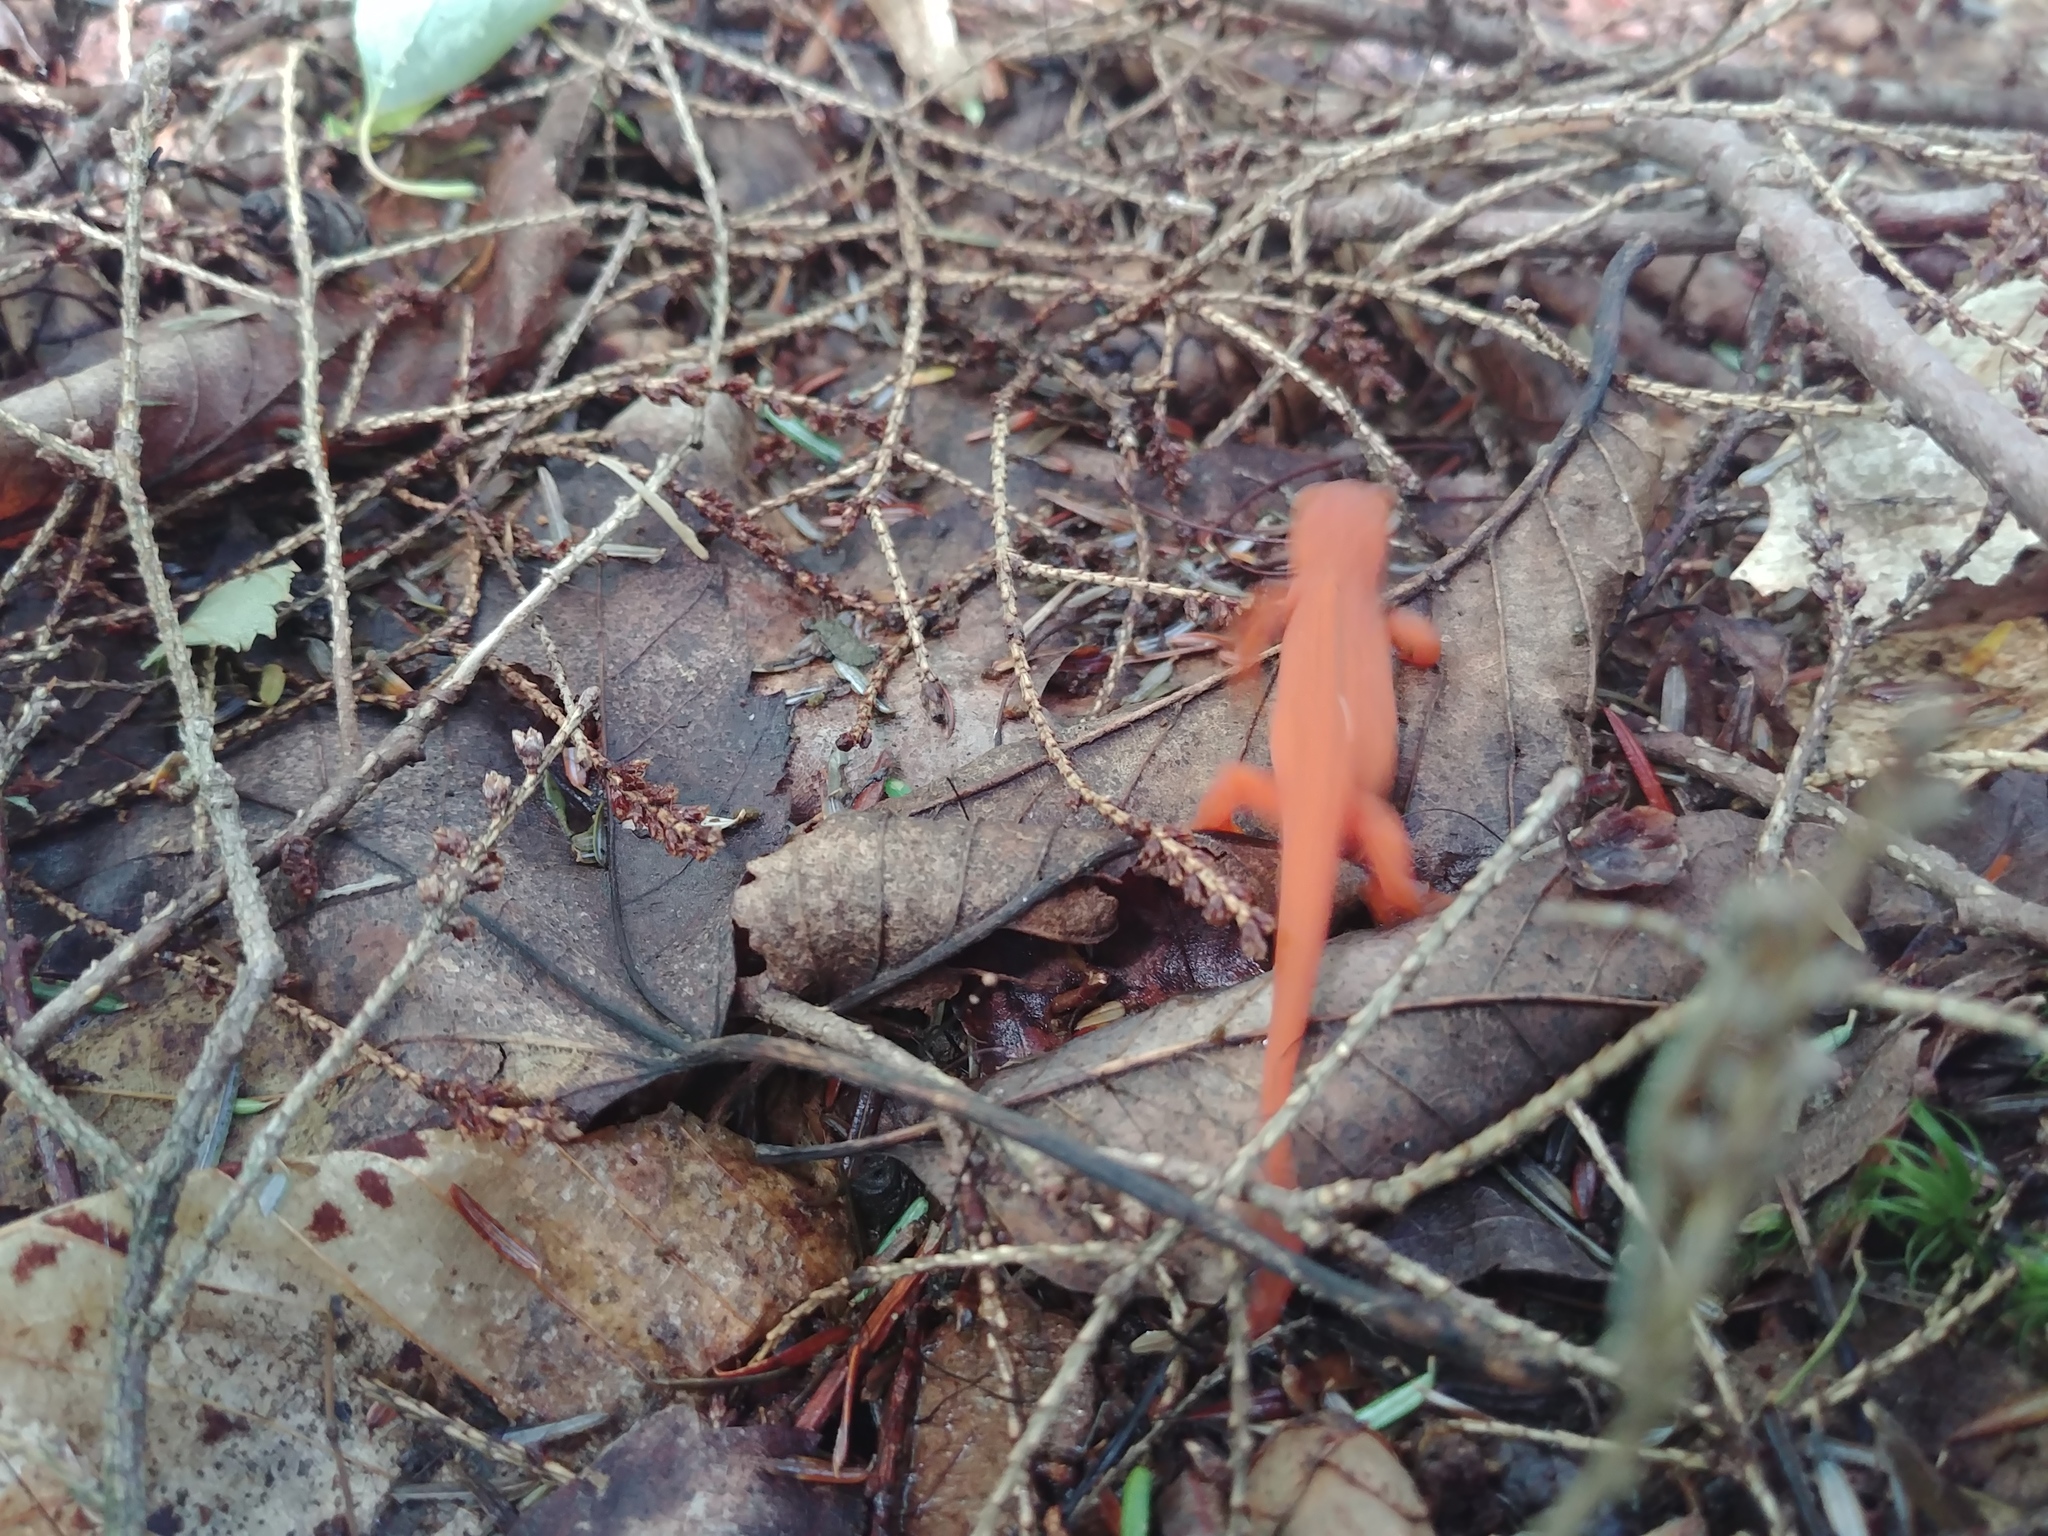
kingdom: Animalia
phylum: Chordata
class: Amphibia
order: Caudata
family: Salamandridae
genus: Notophthalmus
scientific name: Notophthalmus viridescens
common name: Eastern newt
